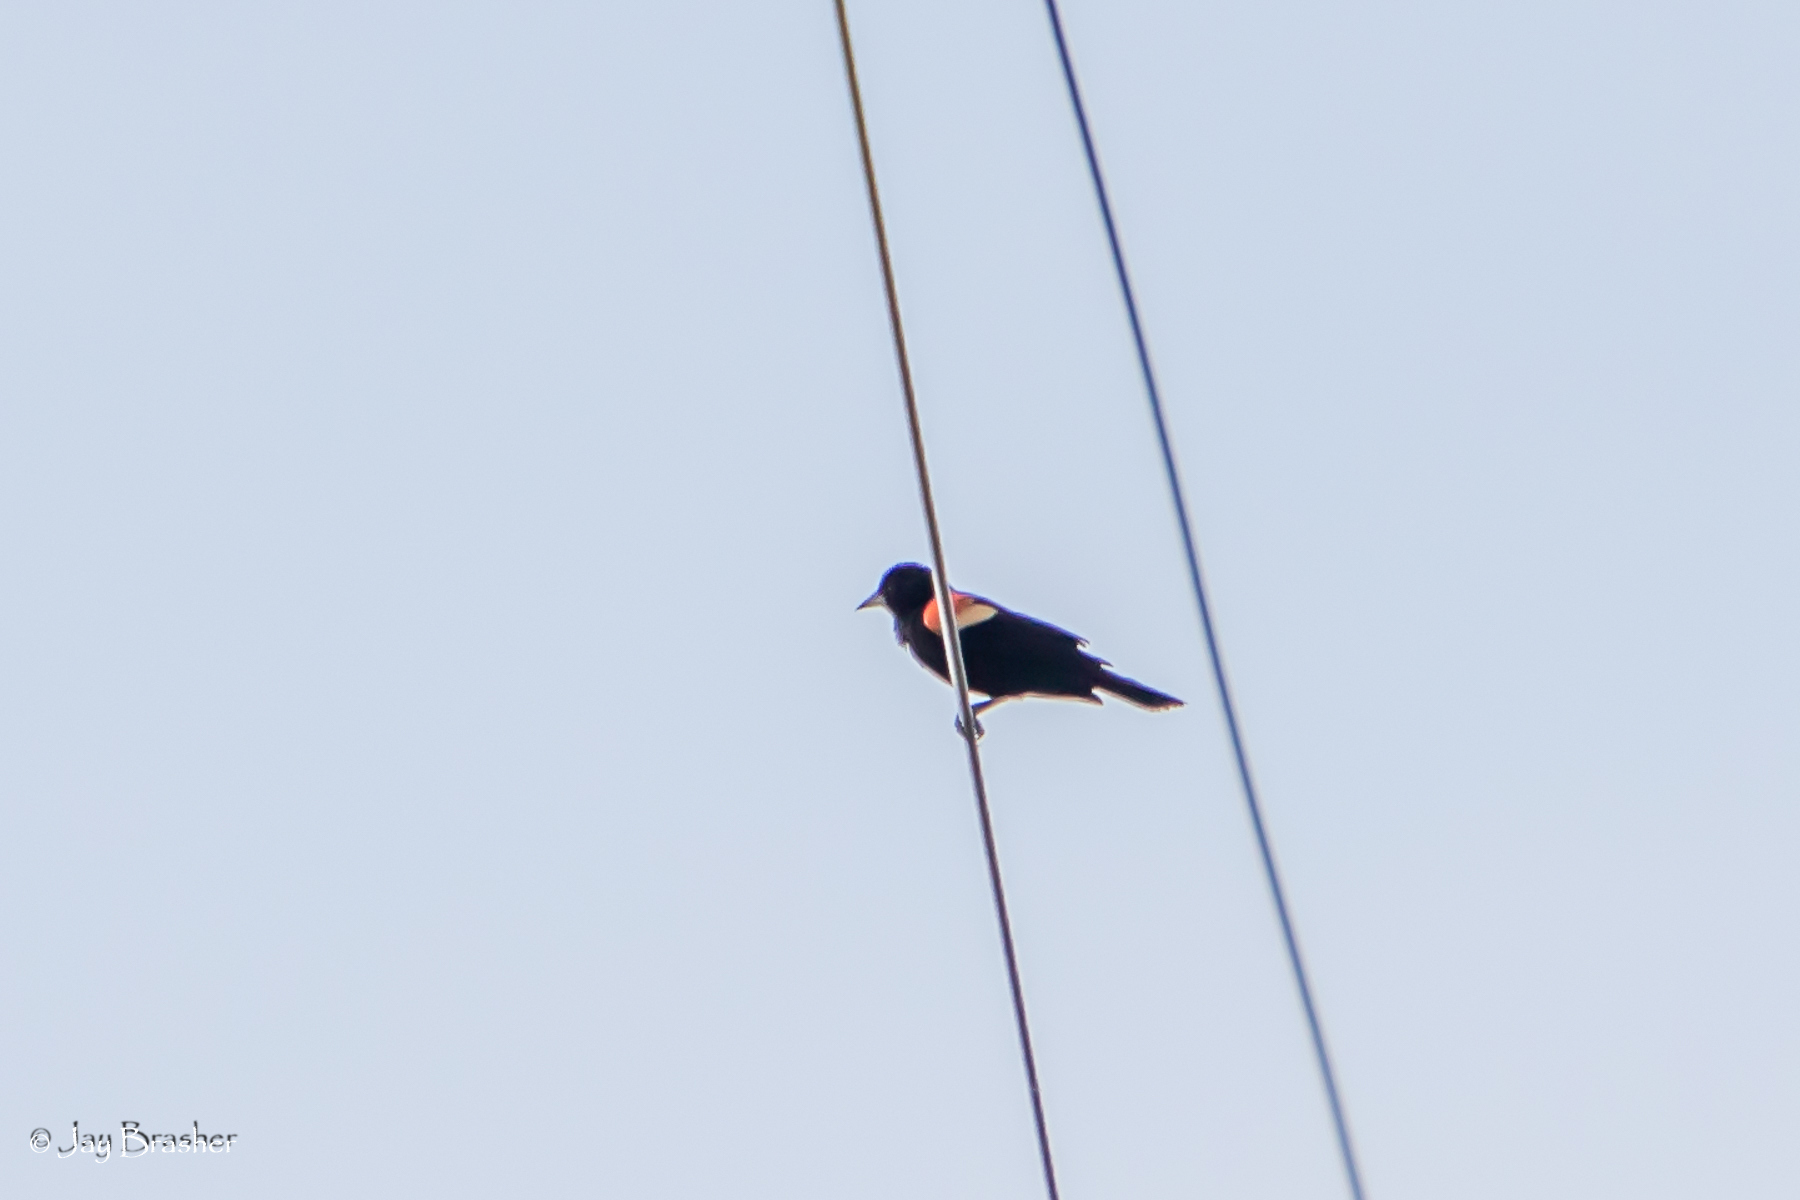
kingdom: Animalia
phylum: Chordata
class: Aves
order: Passeriformes
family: Icteridae
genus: Agelaius
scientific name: Agelaius phoeniceus
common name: Red-winged blackbird
